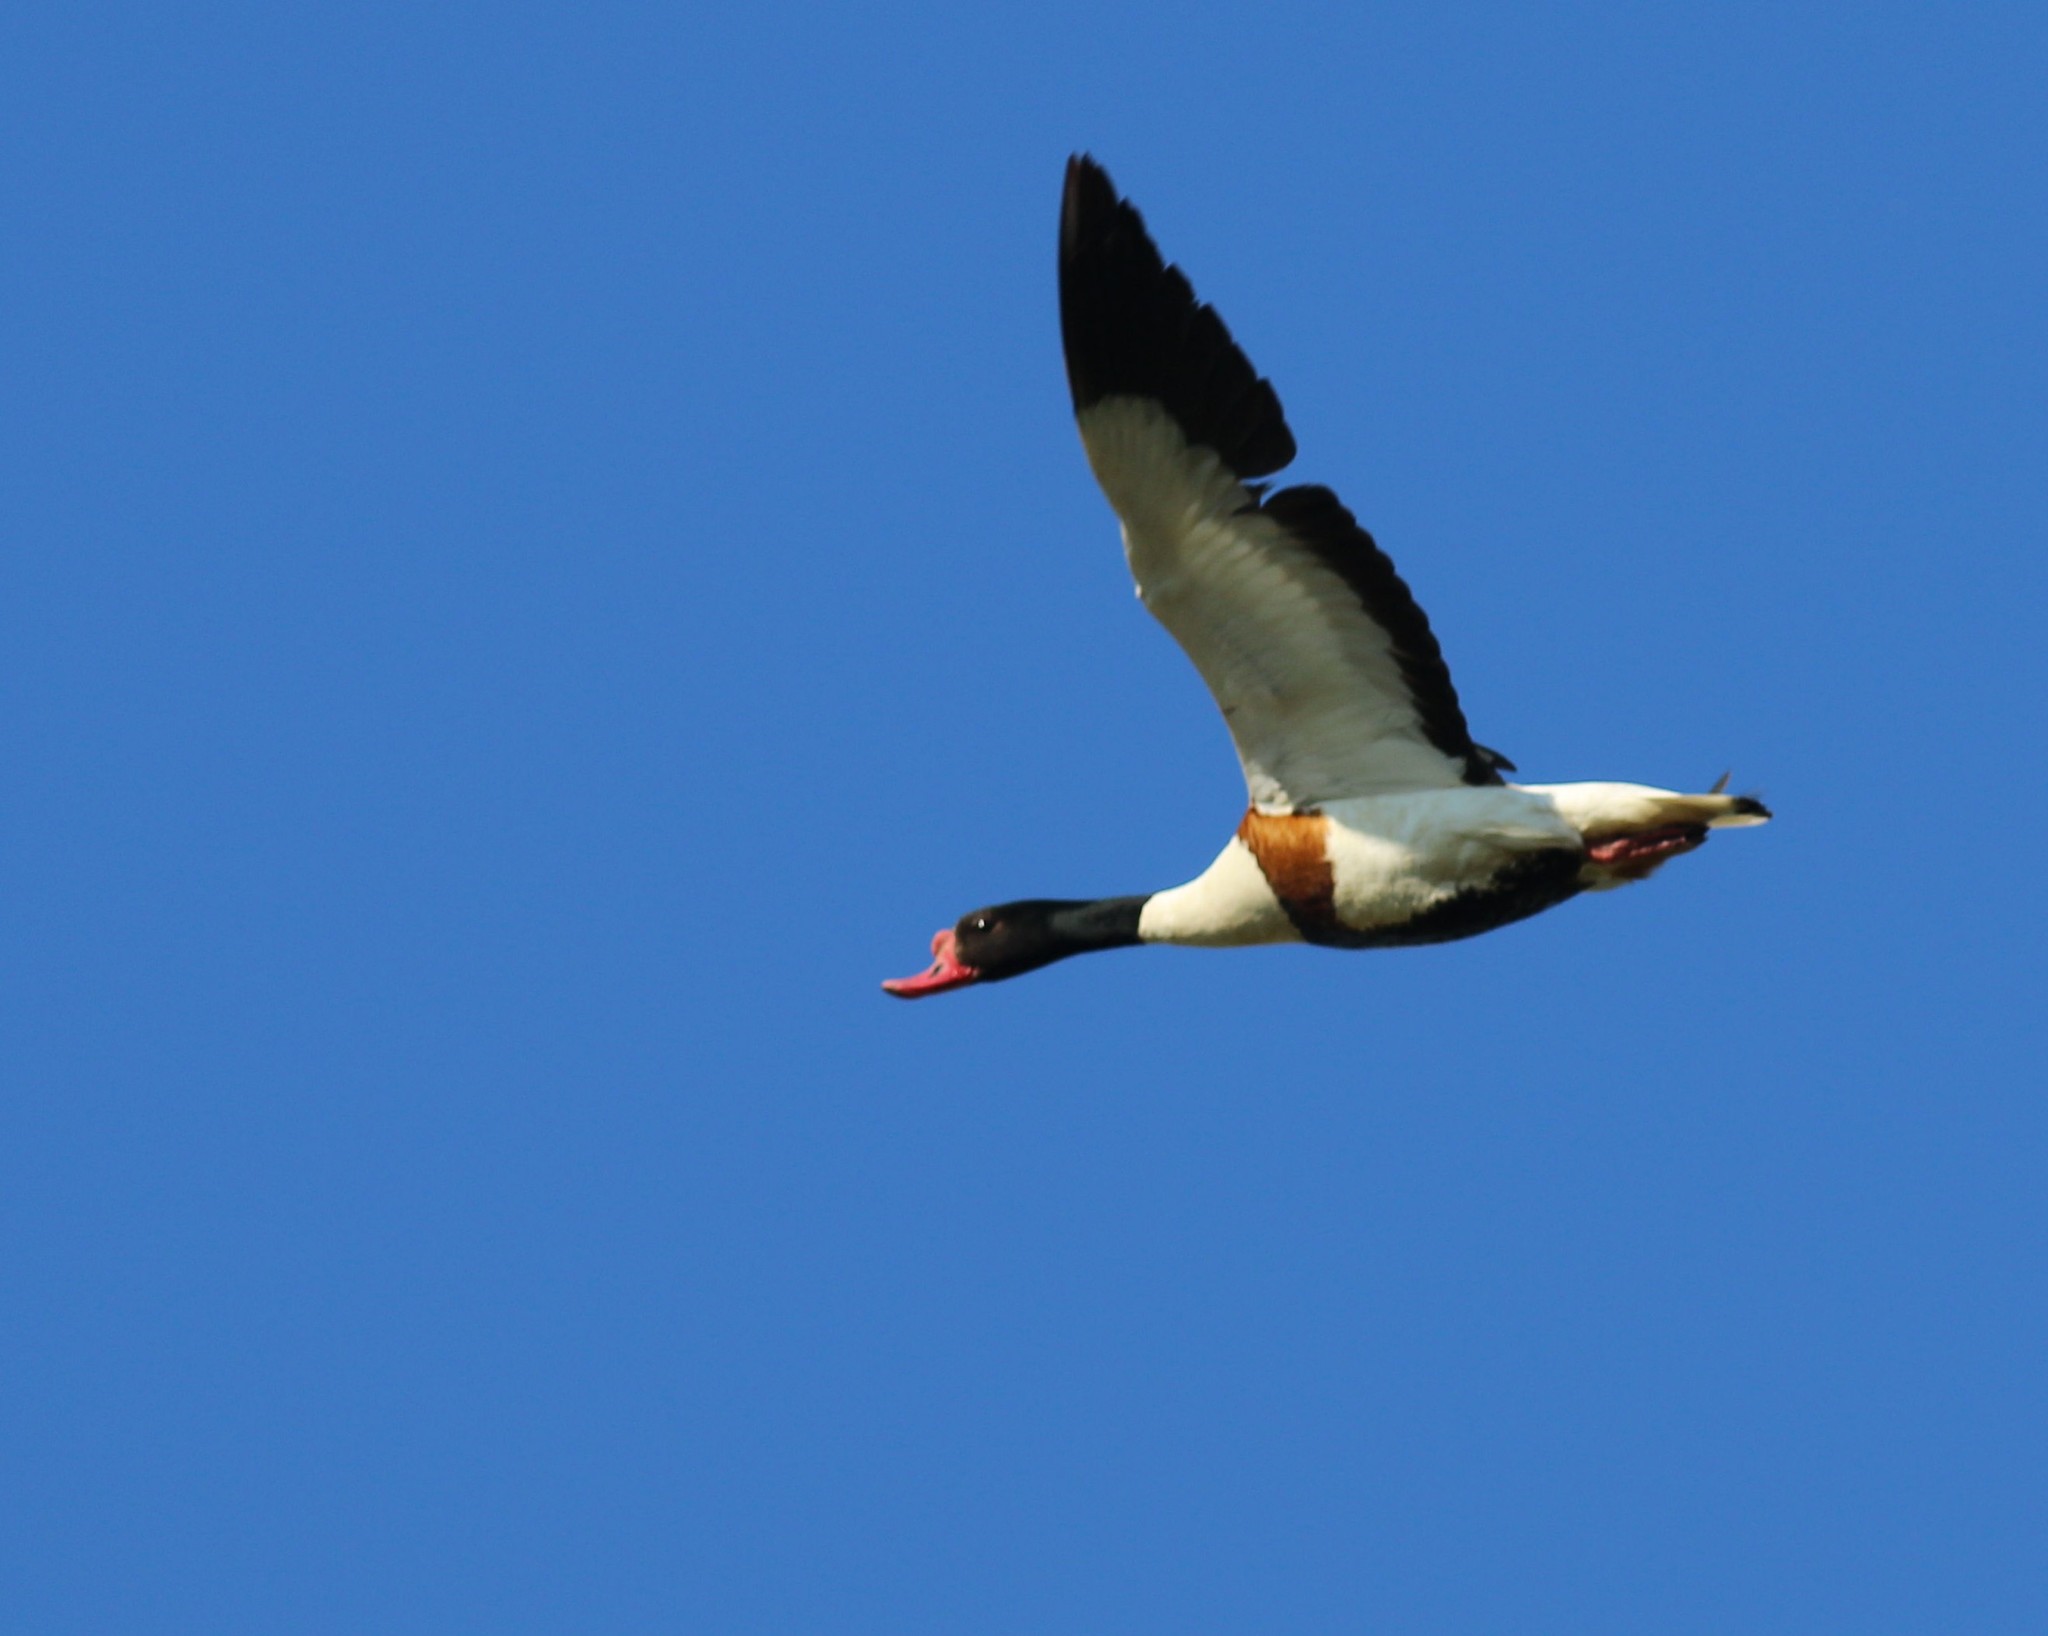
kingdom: Animalia
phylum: Chordata
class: Aves
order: Anseriformes
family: Anatidae
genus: Tadorna
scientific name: Tadorna tadorna
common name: Common shelduck
